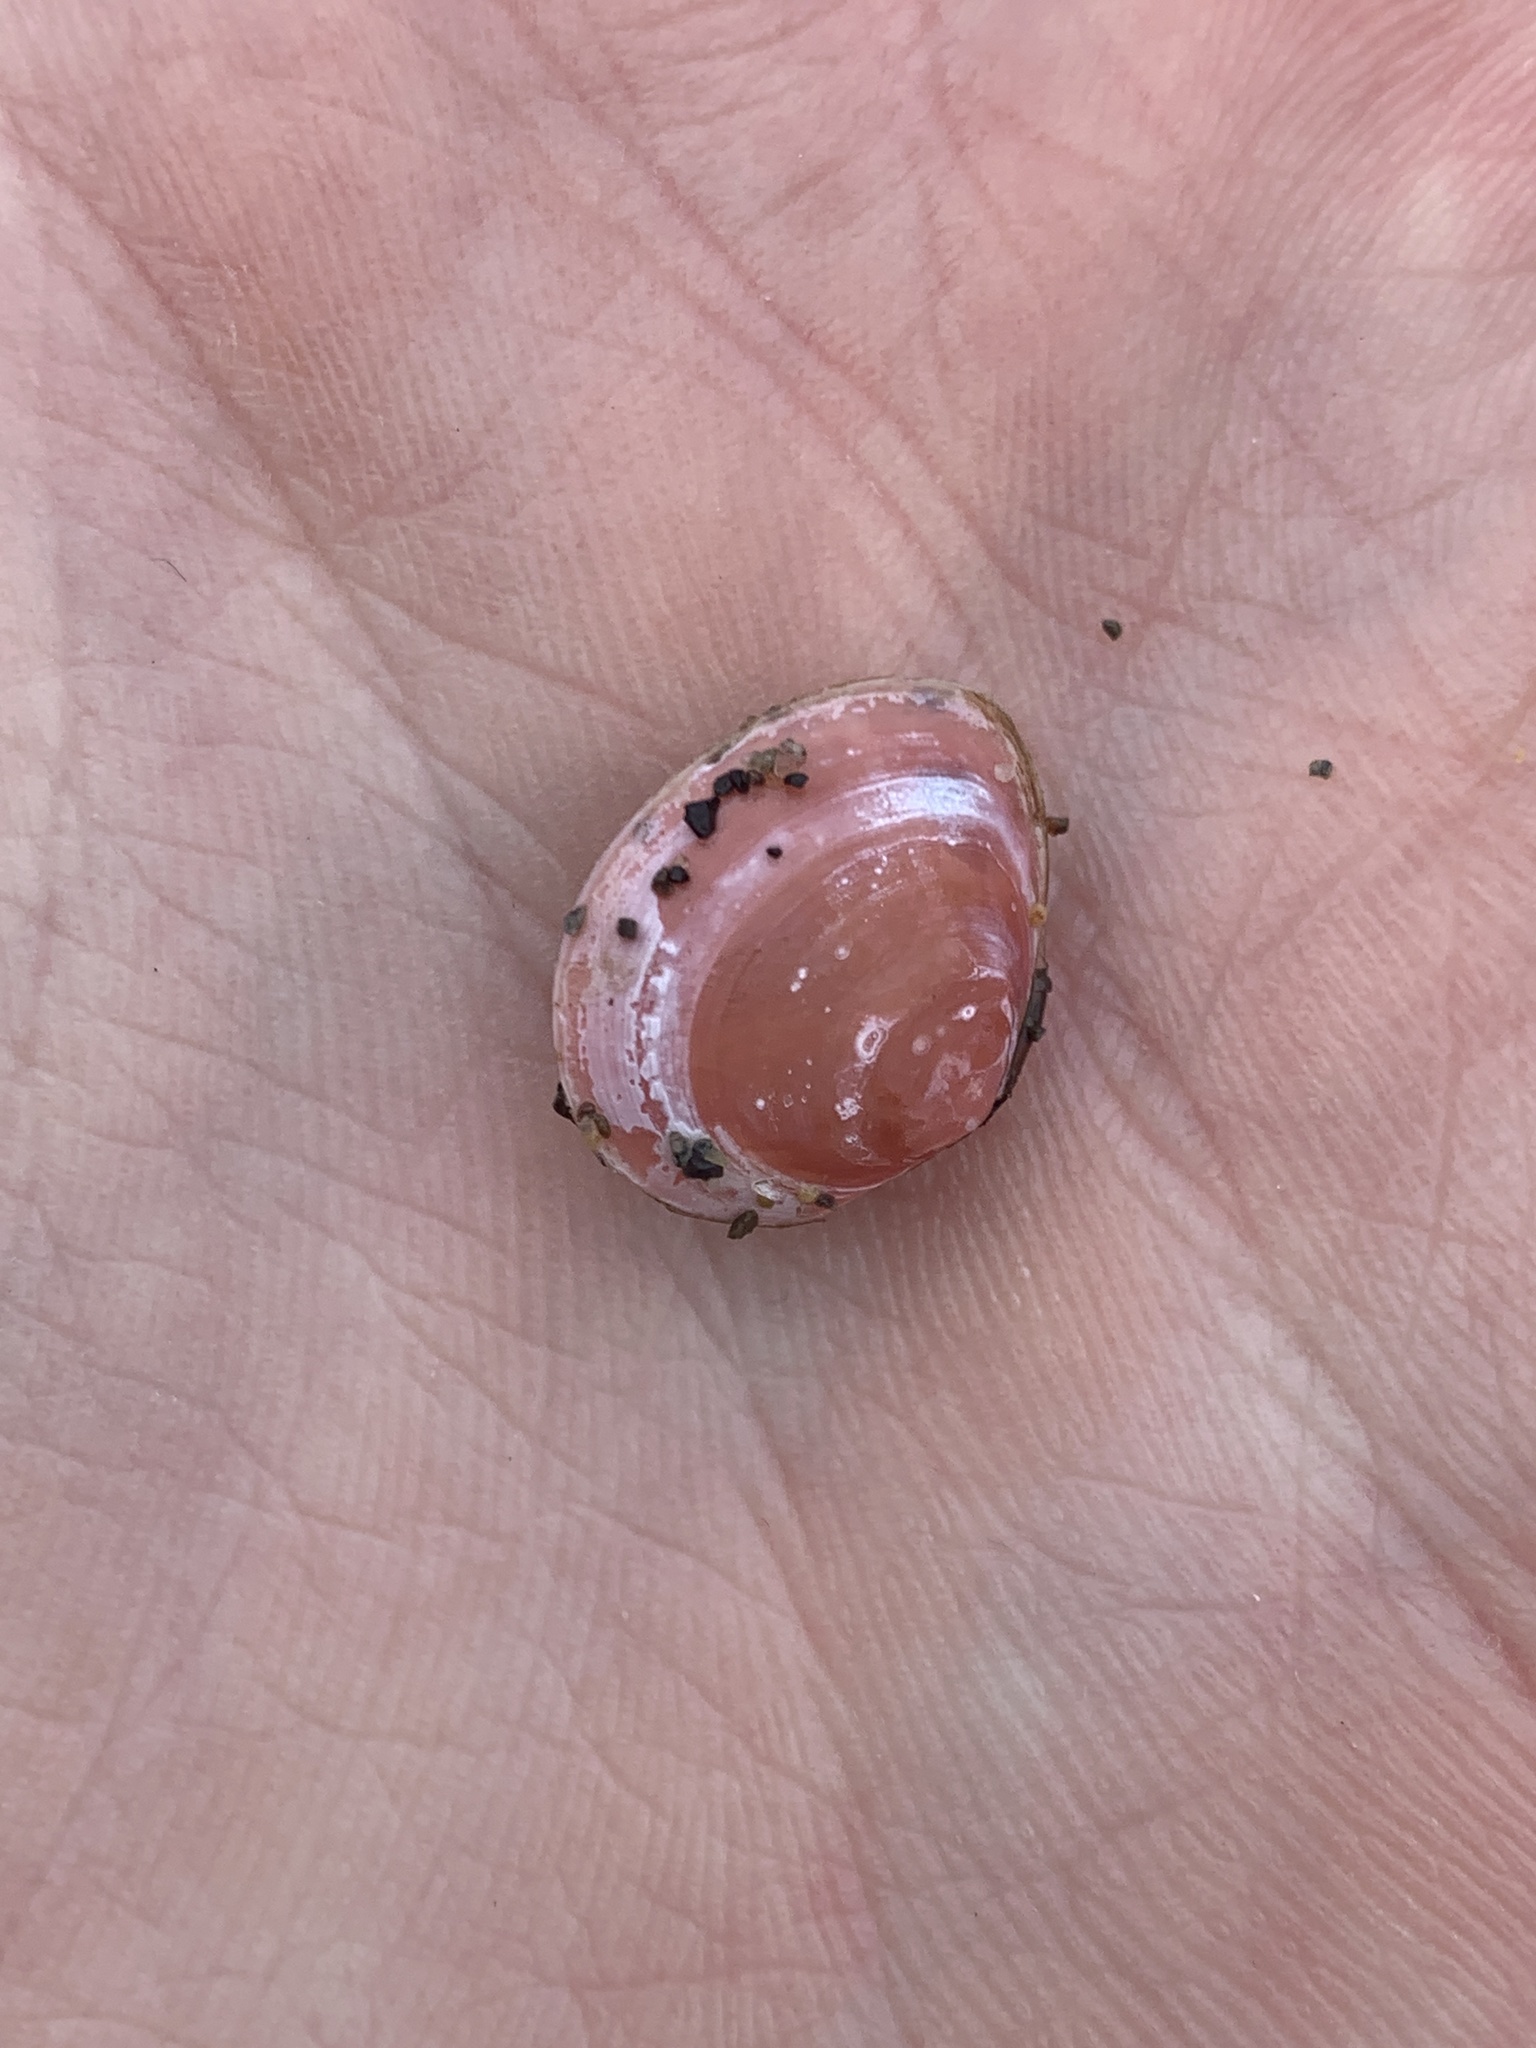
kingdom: Animalia
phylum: Mollusca
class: Bivalvia
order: Cardiida
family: Tellinidae
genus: Macoma
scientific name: Macoma balthica
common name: Baltic tellin
